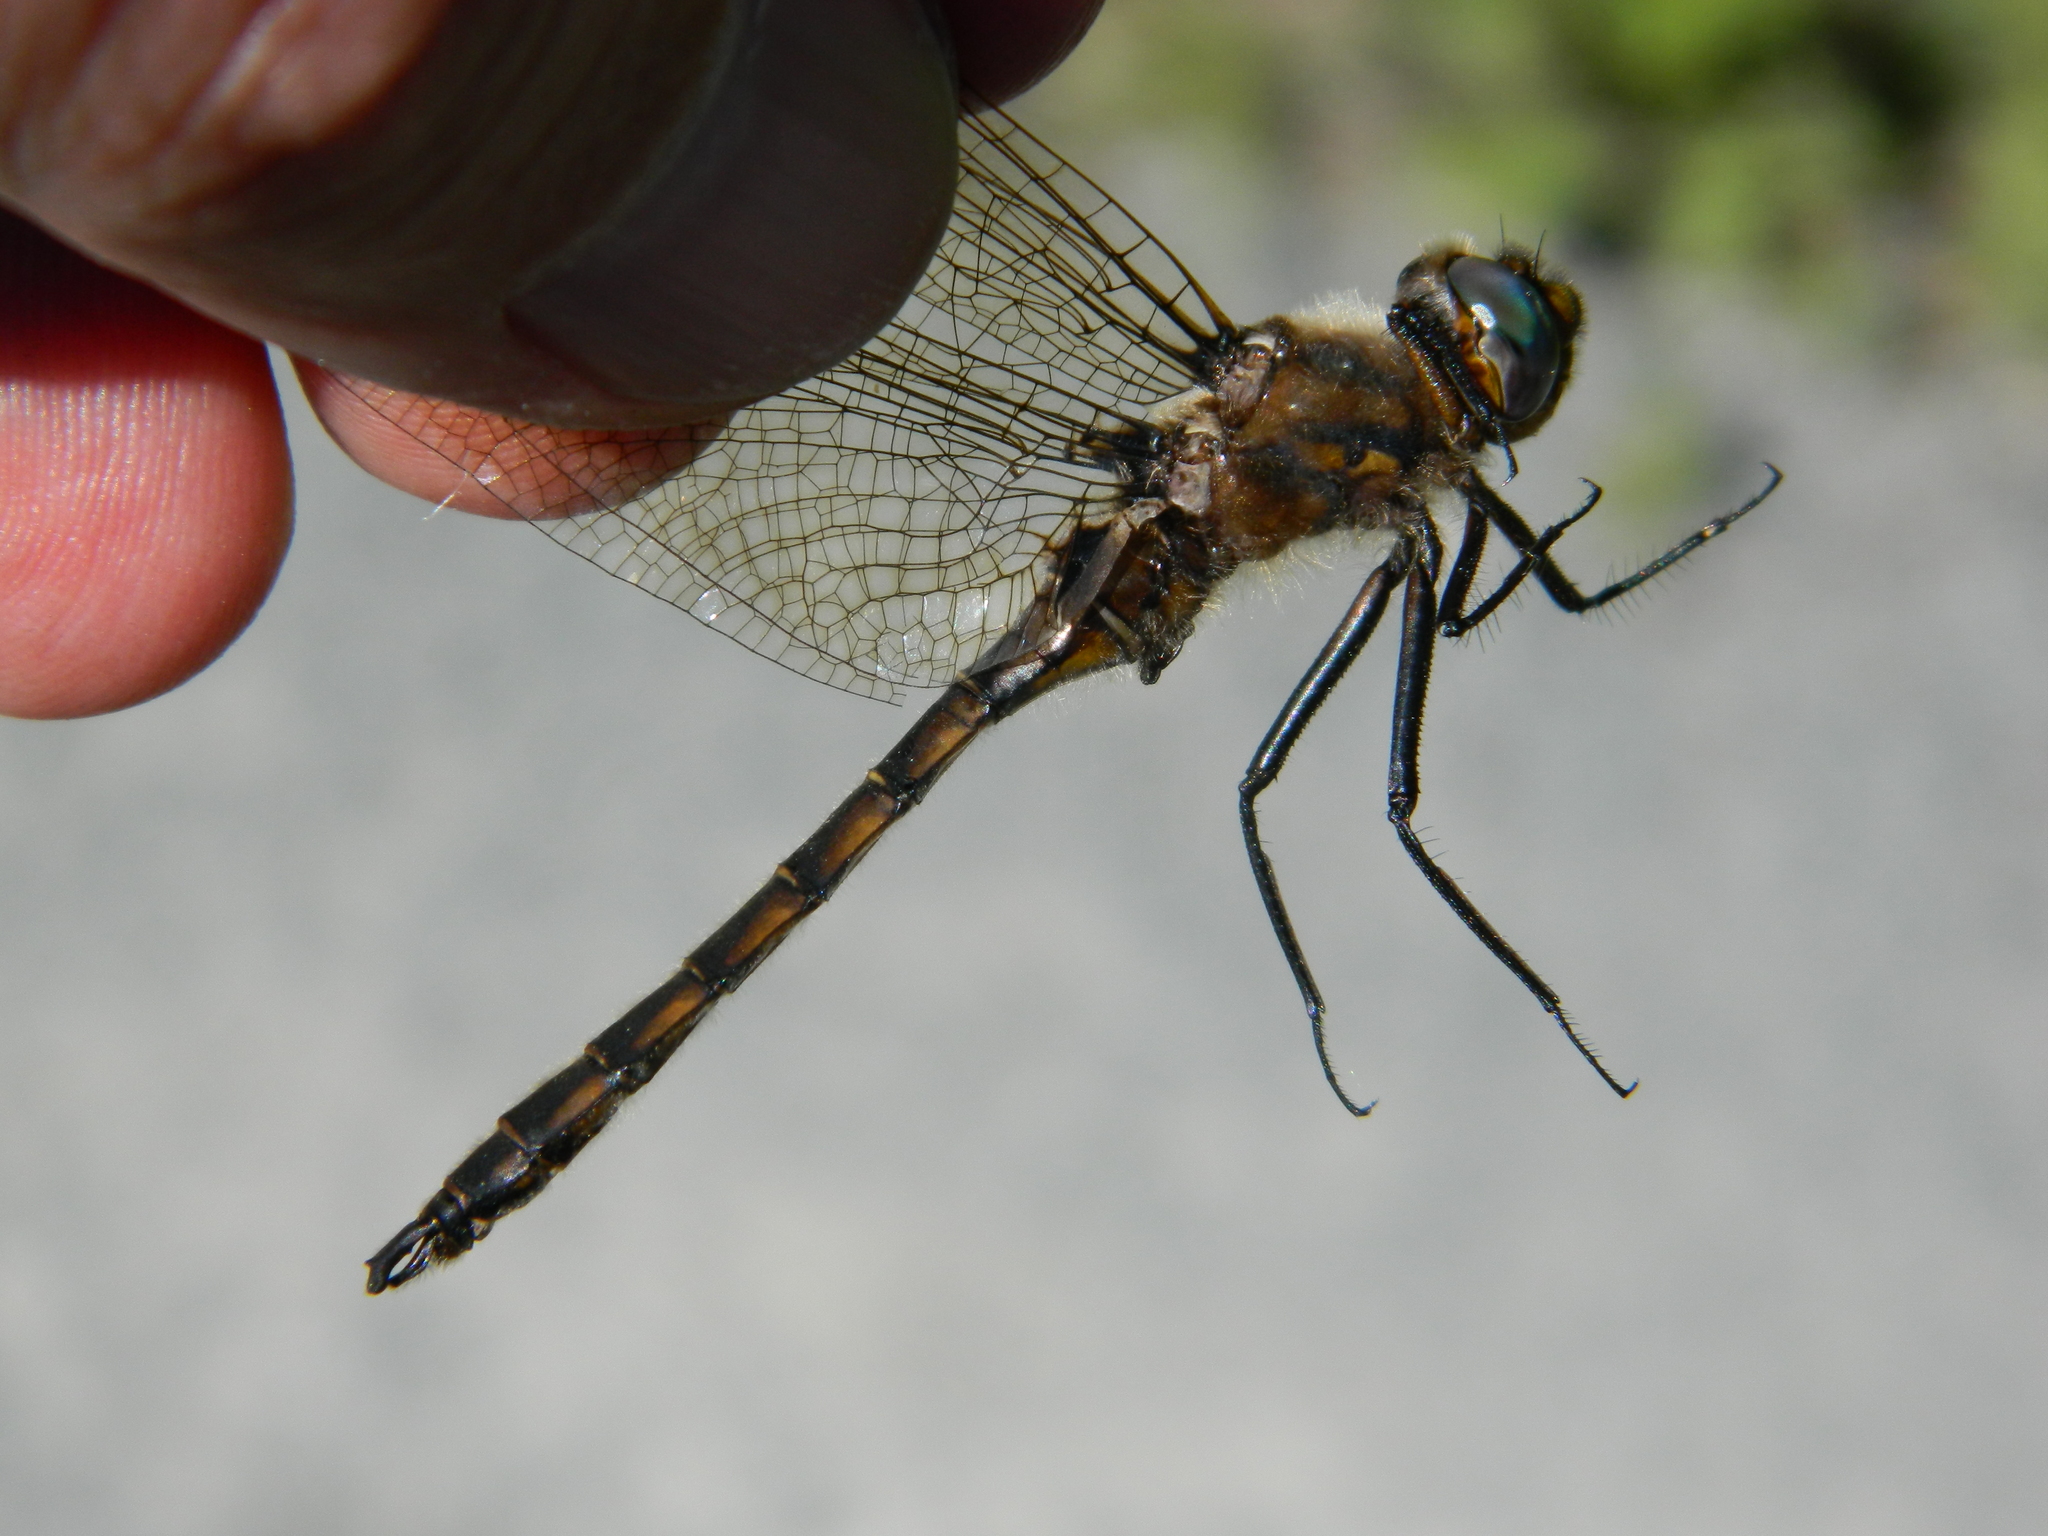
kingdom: Animalia
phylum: Arthropoda
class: Insecta
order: Odonata
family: Corduliidae
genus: Epitheca
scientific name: Epitheca canis
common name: Beaverpond baskettail
